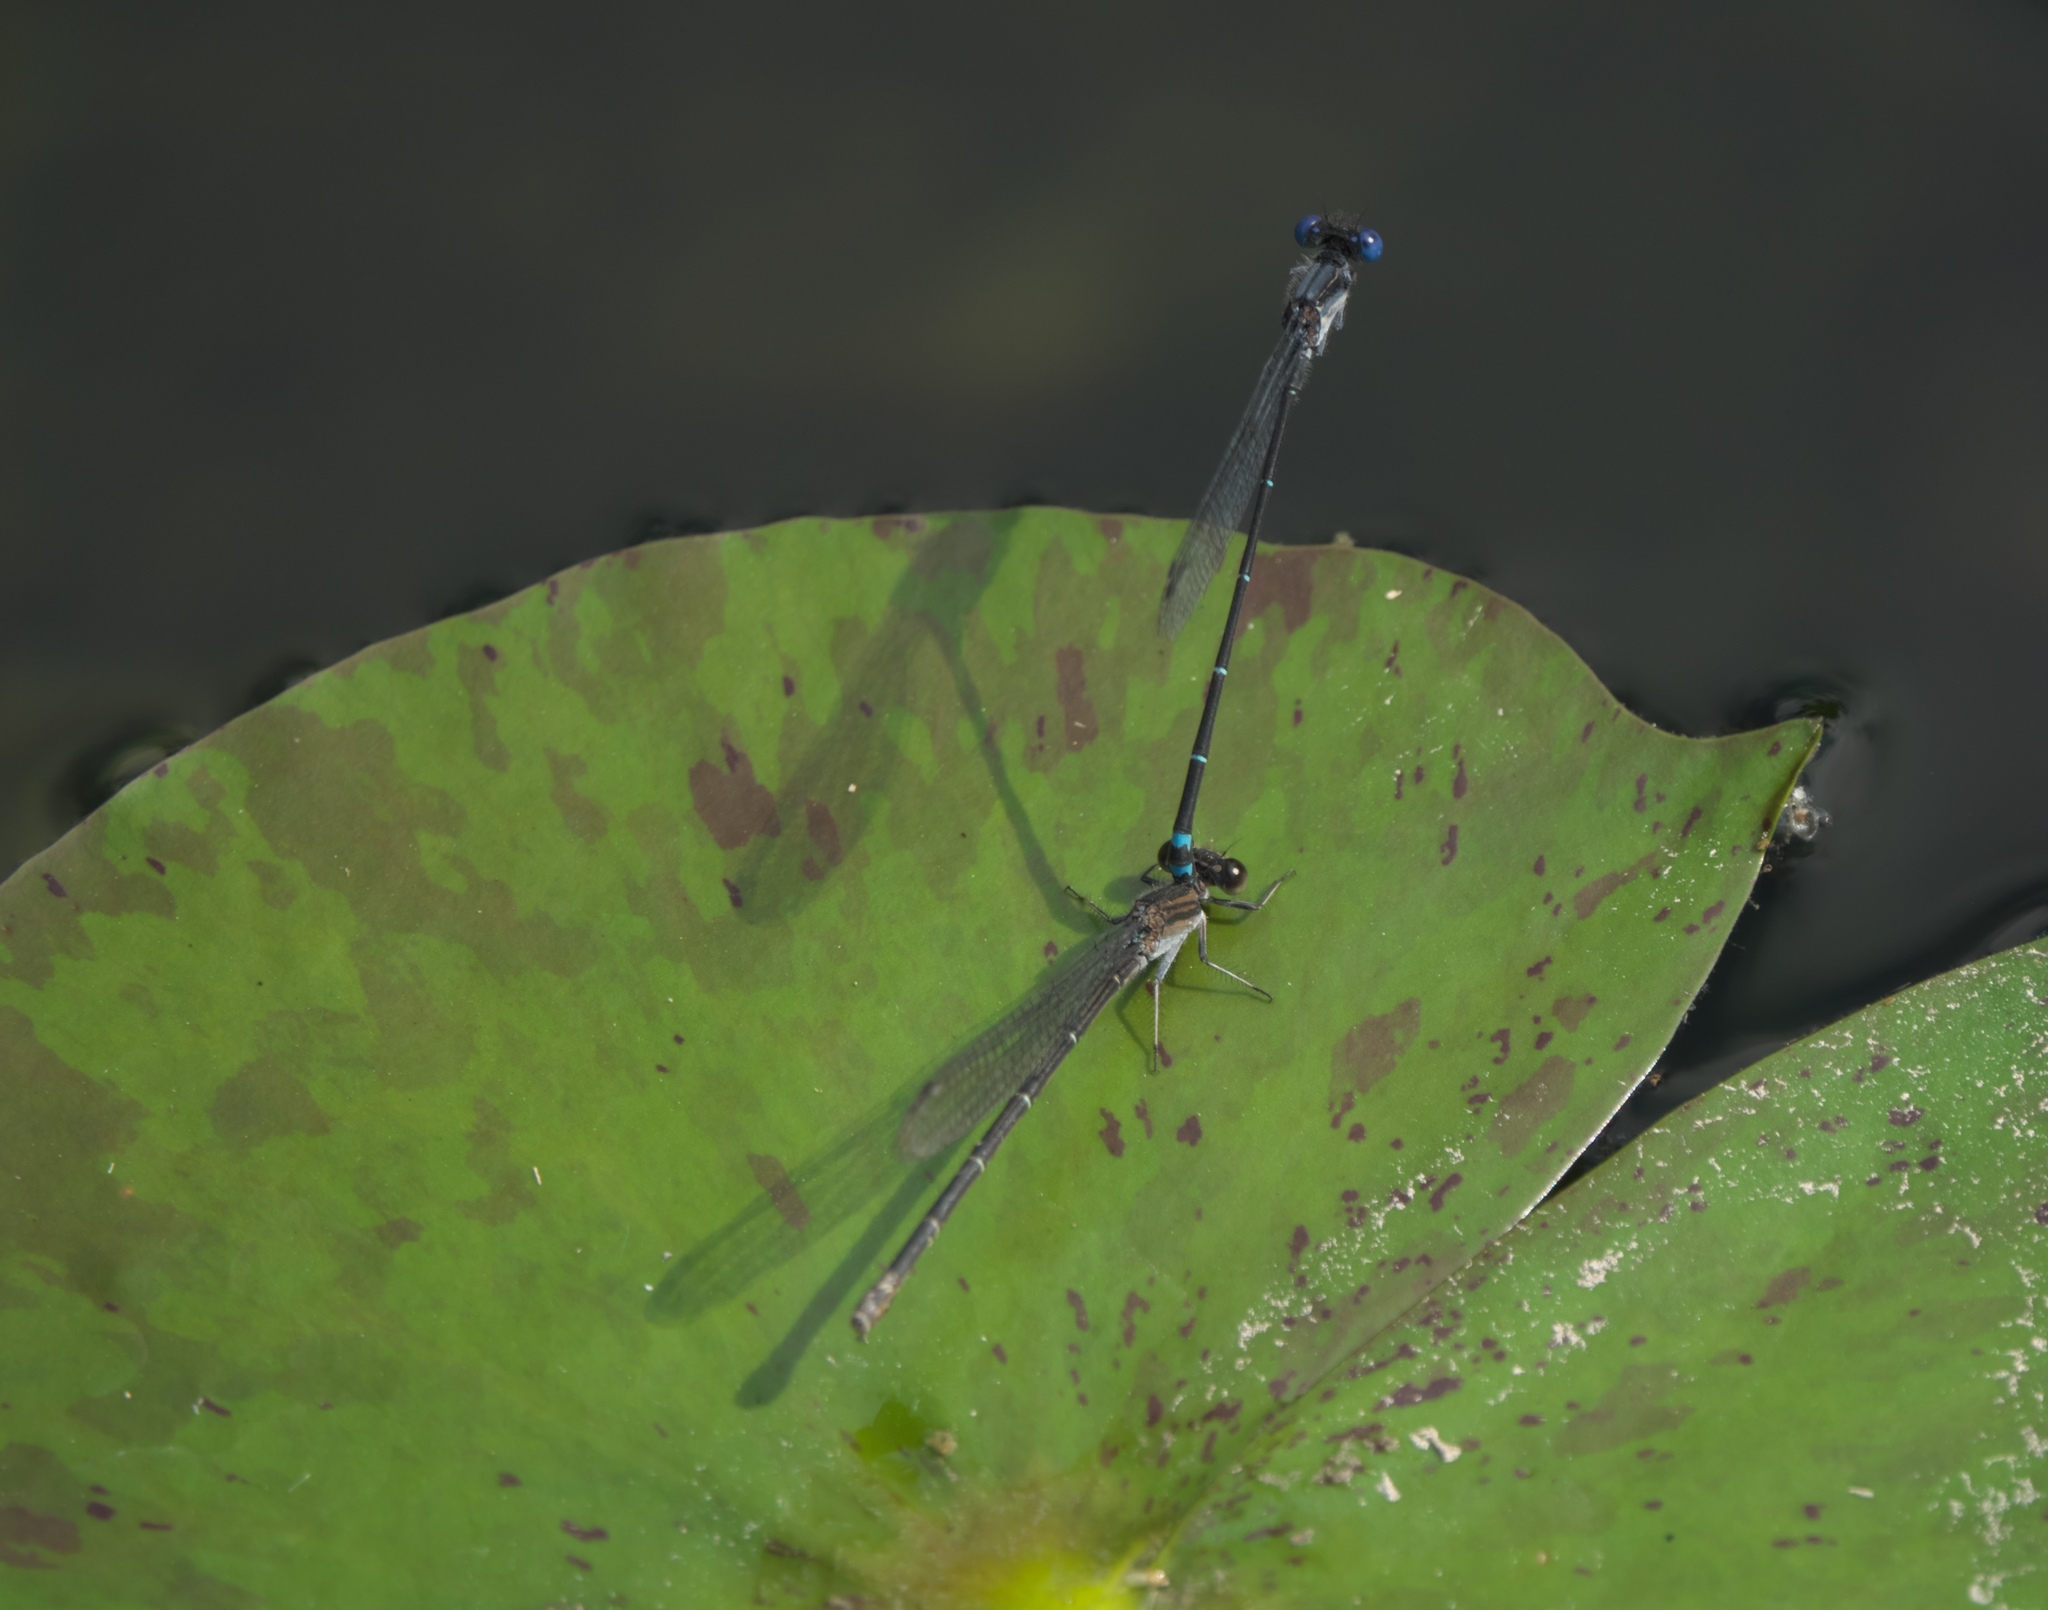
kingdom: Animalia
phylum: Arthropoda
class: Insecta
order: Odonata
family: Coenagrionidae
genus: Argia
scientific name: Argia translata
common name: Dusky dancer
